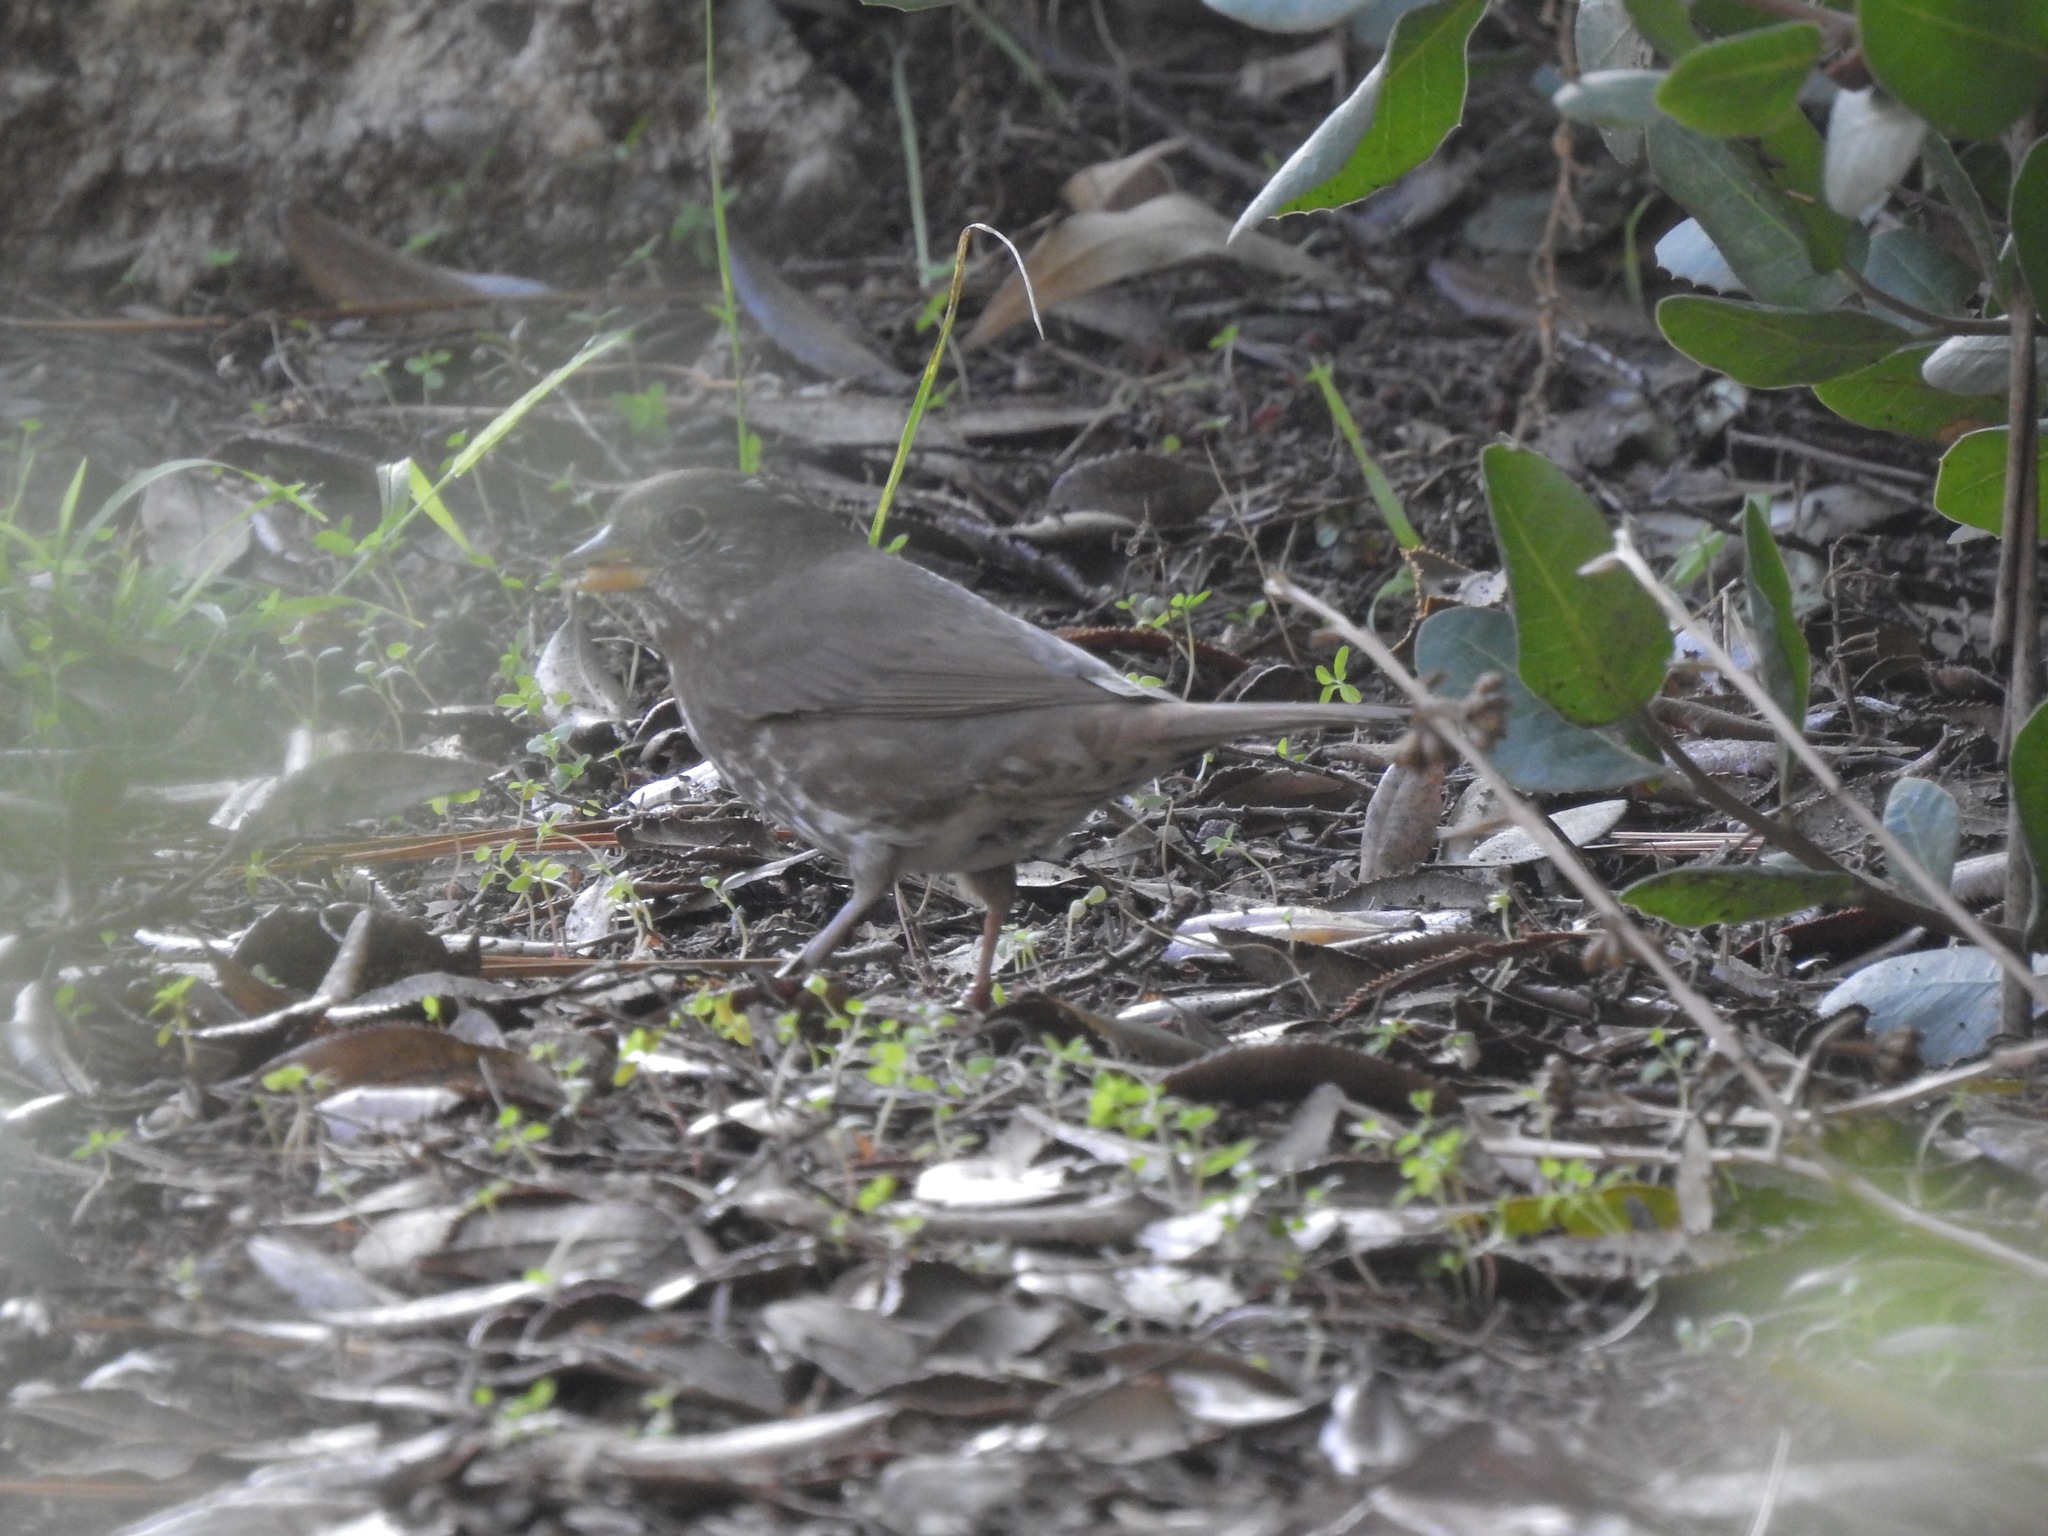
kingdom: Animalia
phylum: Chordata
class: Aves
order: Passeriformes
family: Passerellidae
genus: Passerella
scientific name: Passerella iliaca
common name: Fox sparrow
